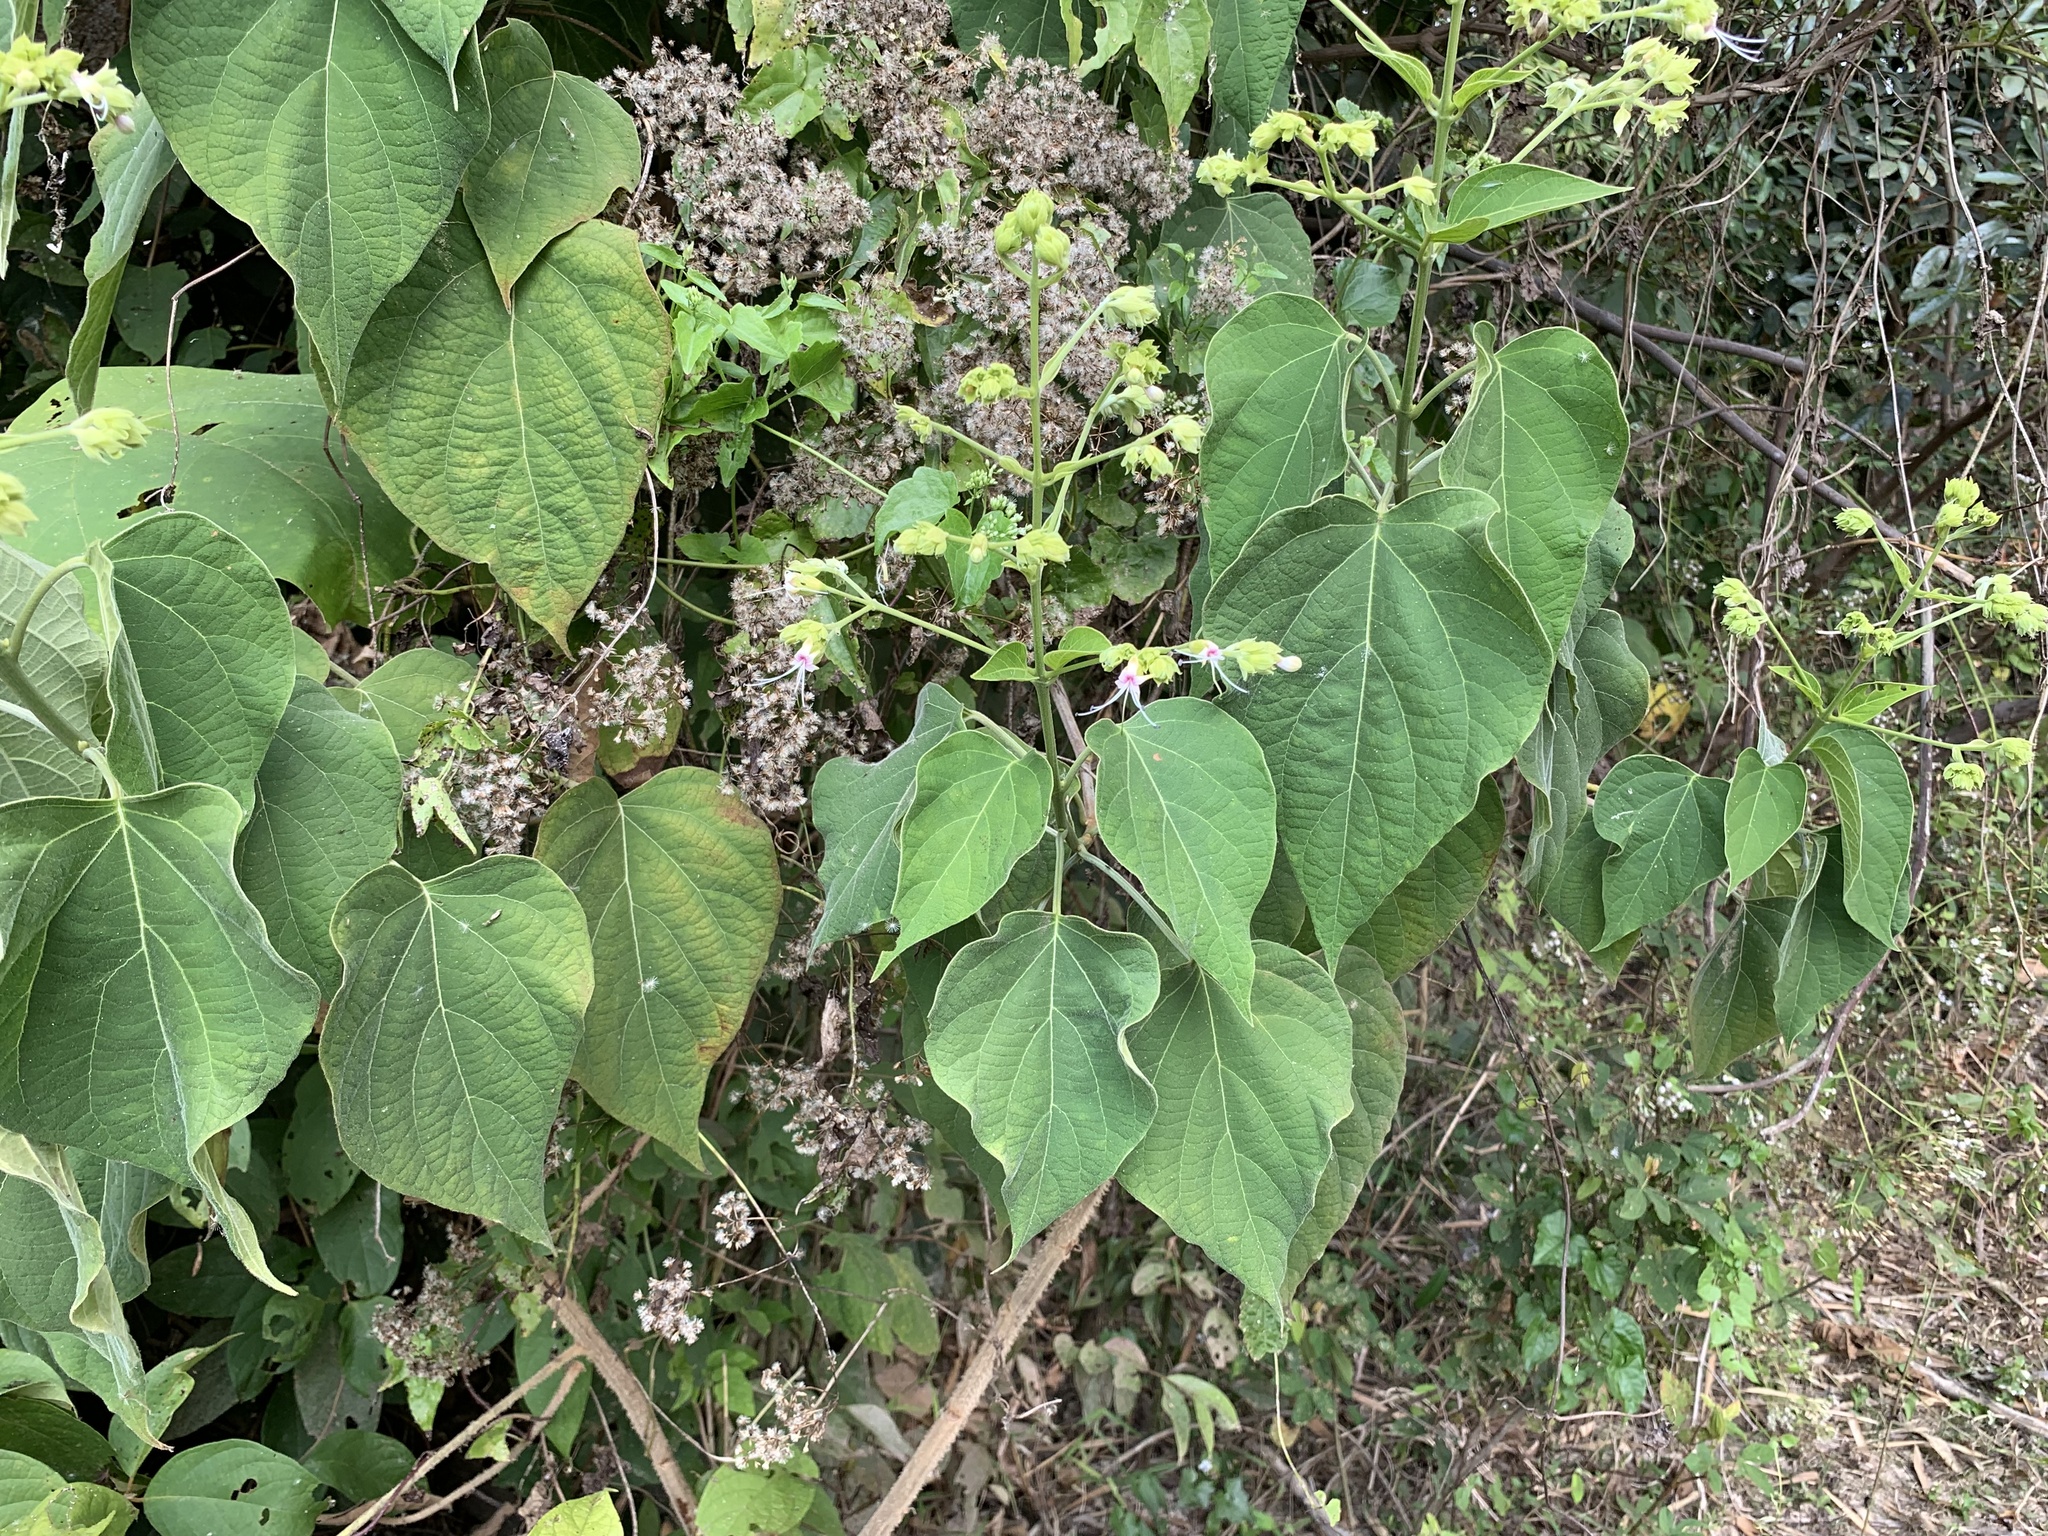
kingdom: Plantae
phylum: Tracheophyta
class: Magnoliopsida
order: Lamiales
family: Lamiaceae
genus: Clerodendrum
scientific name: Clerodendrum infortunatum
